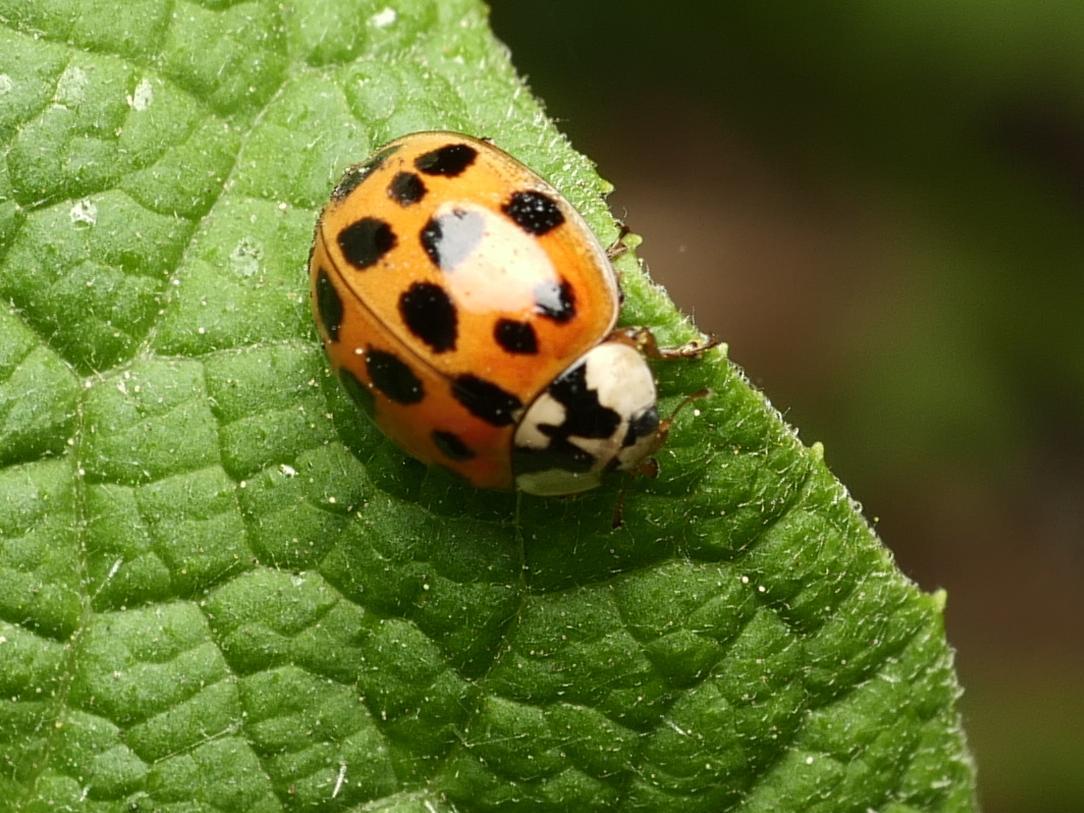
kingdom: Animalia
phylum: Arthropoda
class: Insecta
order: Coleoptera
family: Coccinellidae
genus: Harmonia
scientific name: Harmonia axyridis
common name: Harlequin ladybird
